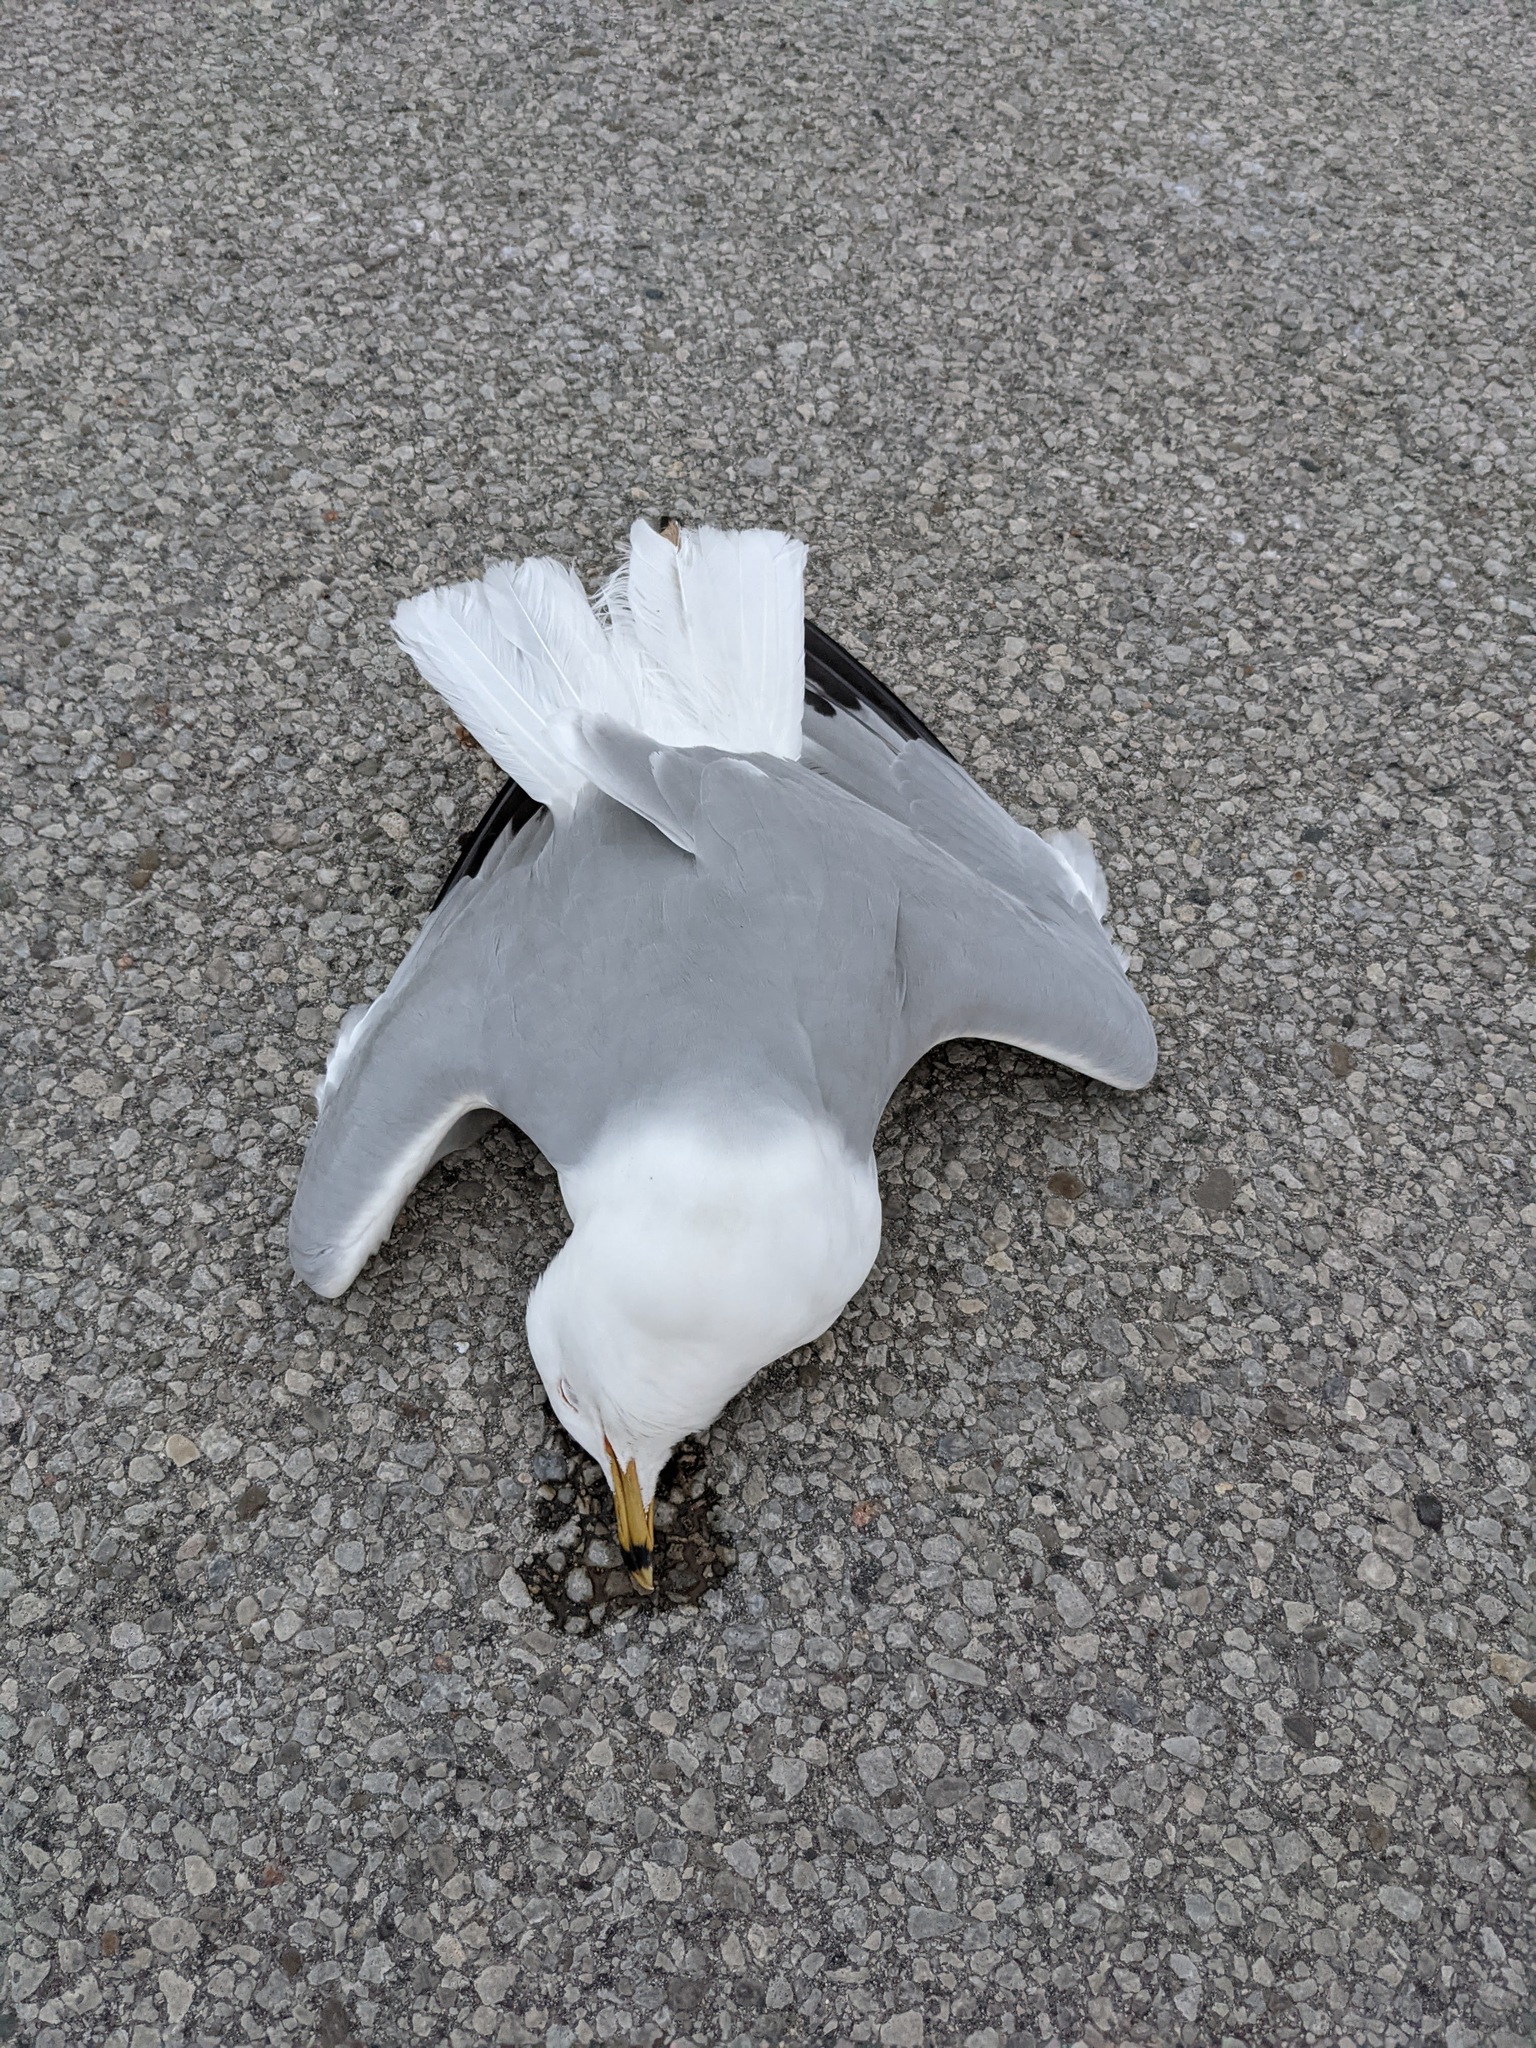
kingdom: Animalia
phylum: Chordata
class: Aves
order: Charadriiformes
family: Laridae
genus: Larus
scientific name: Larus delawarensis
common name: Ring-billed gull
